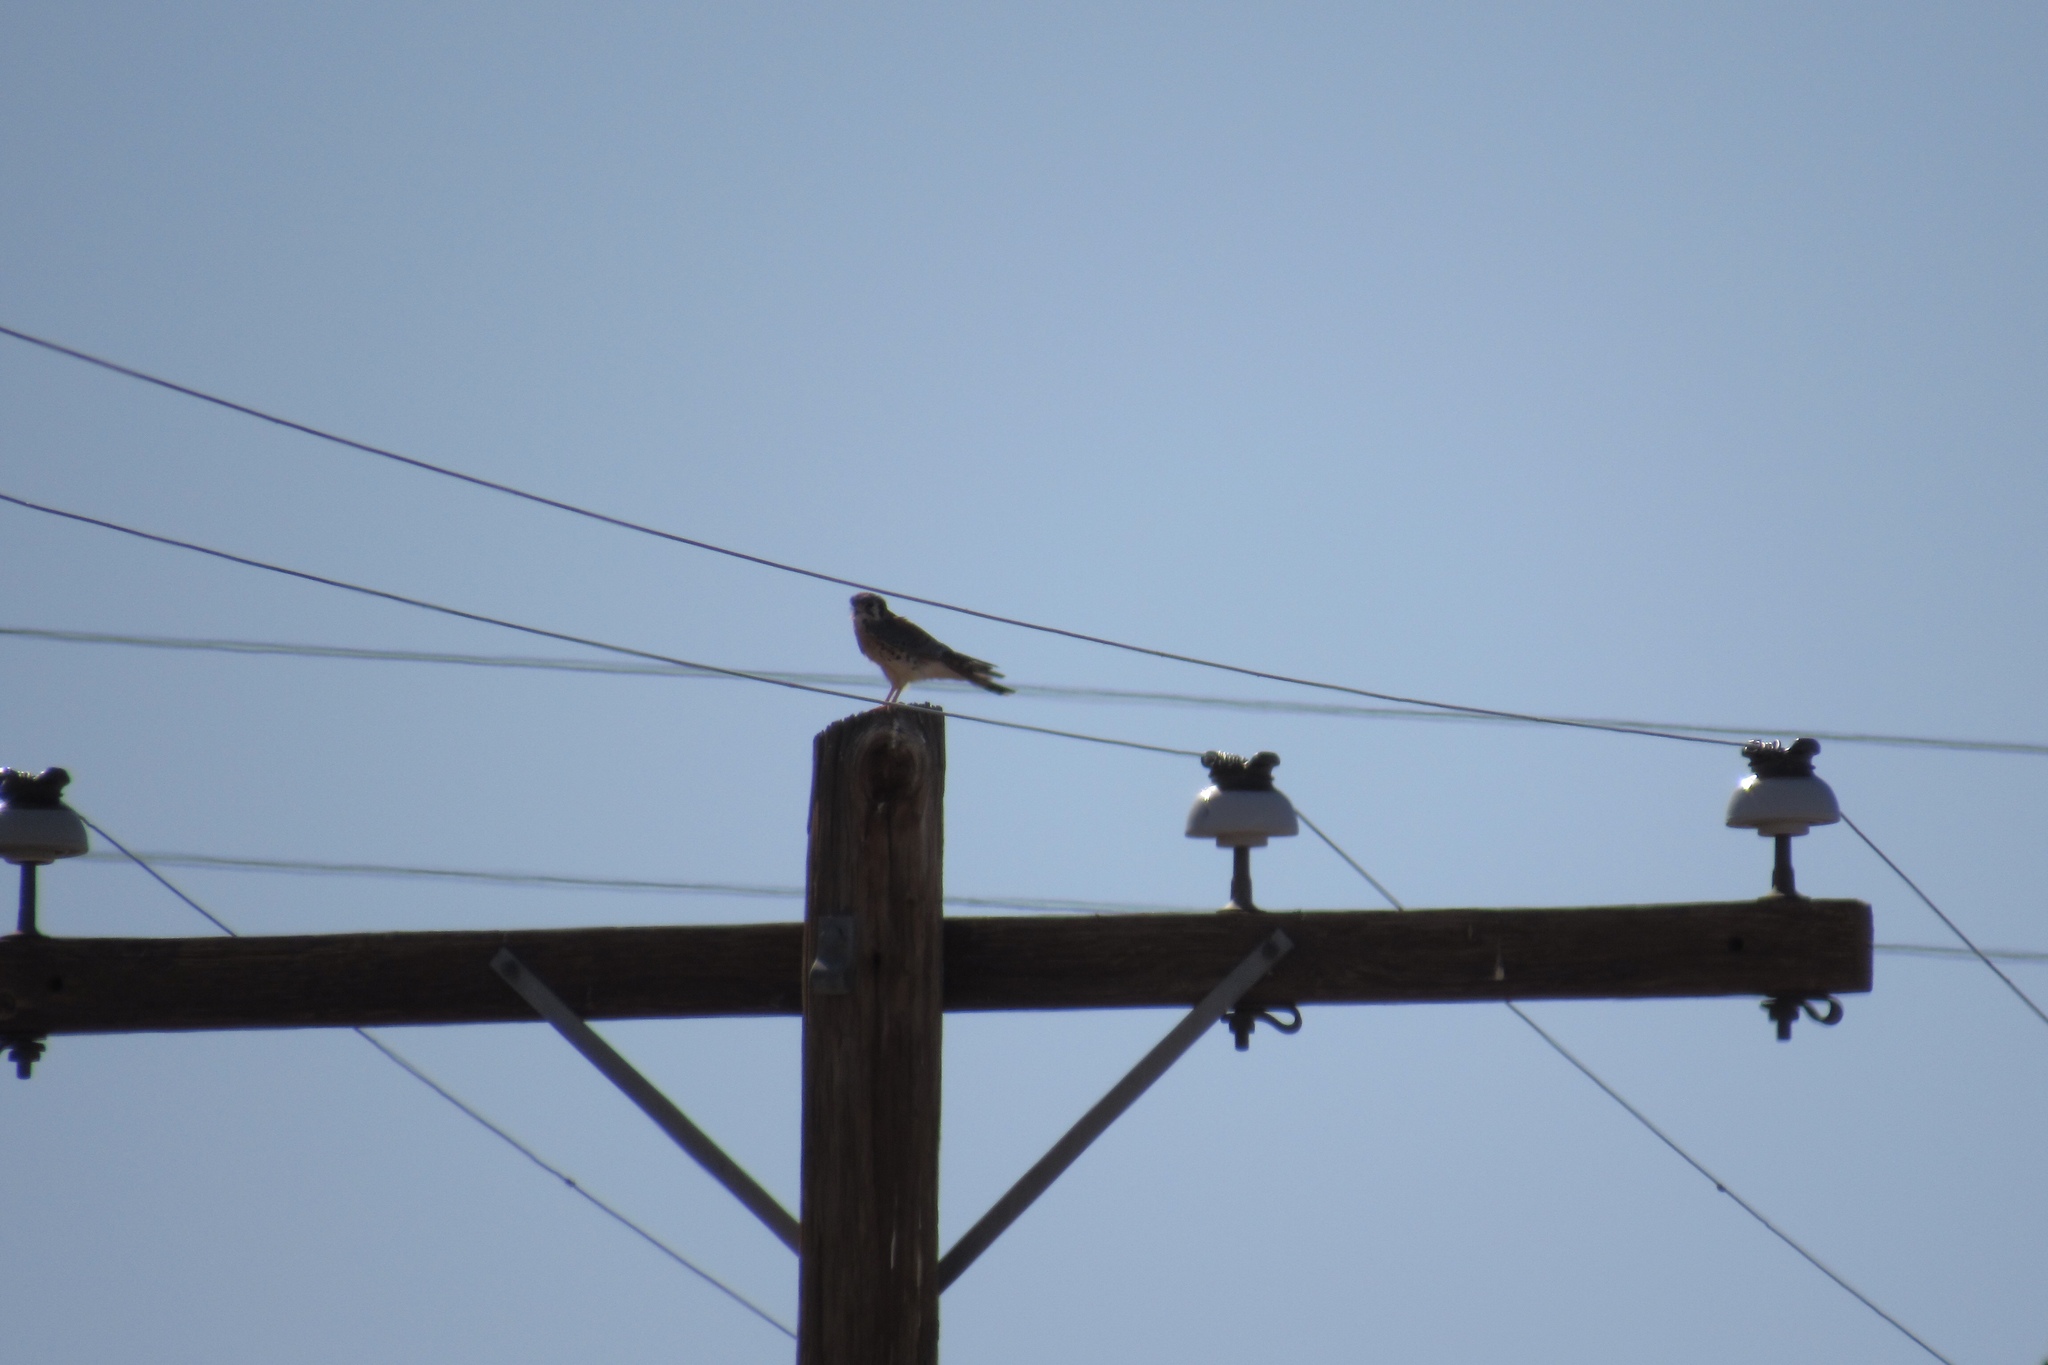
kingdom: Animalia
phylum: Chordata
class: Aves
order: Falconiformes
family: Falconidae
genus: Falco
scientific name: Falco sparverius
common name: American kestrel
